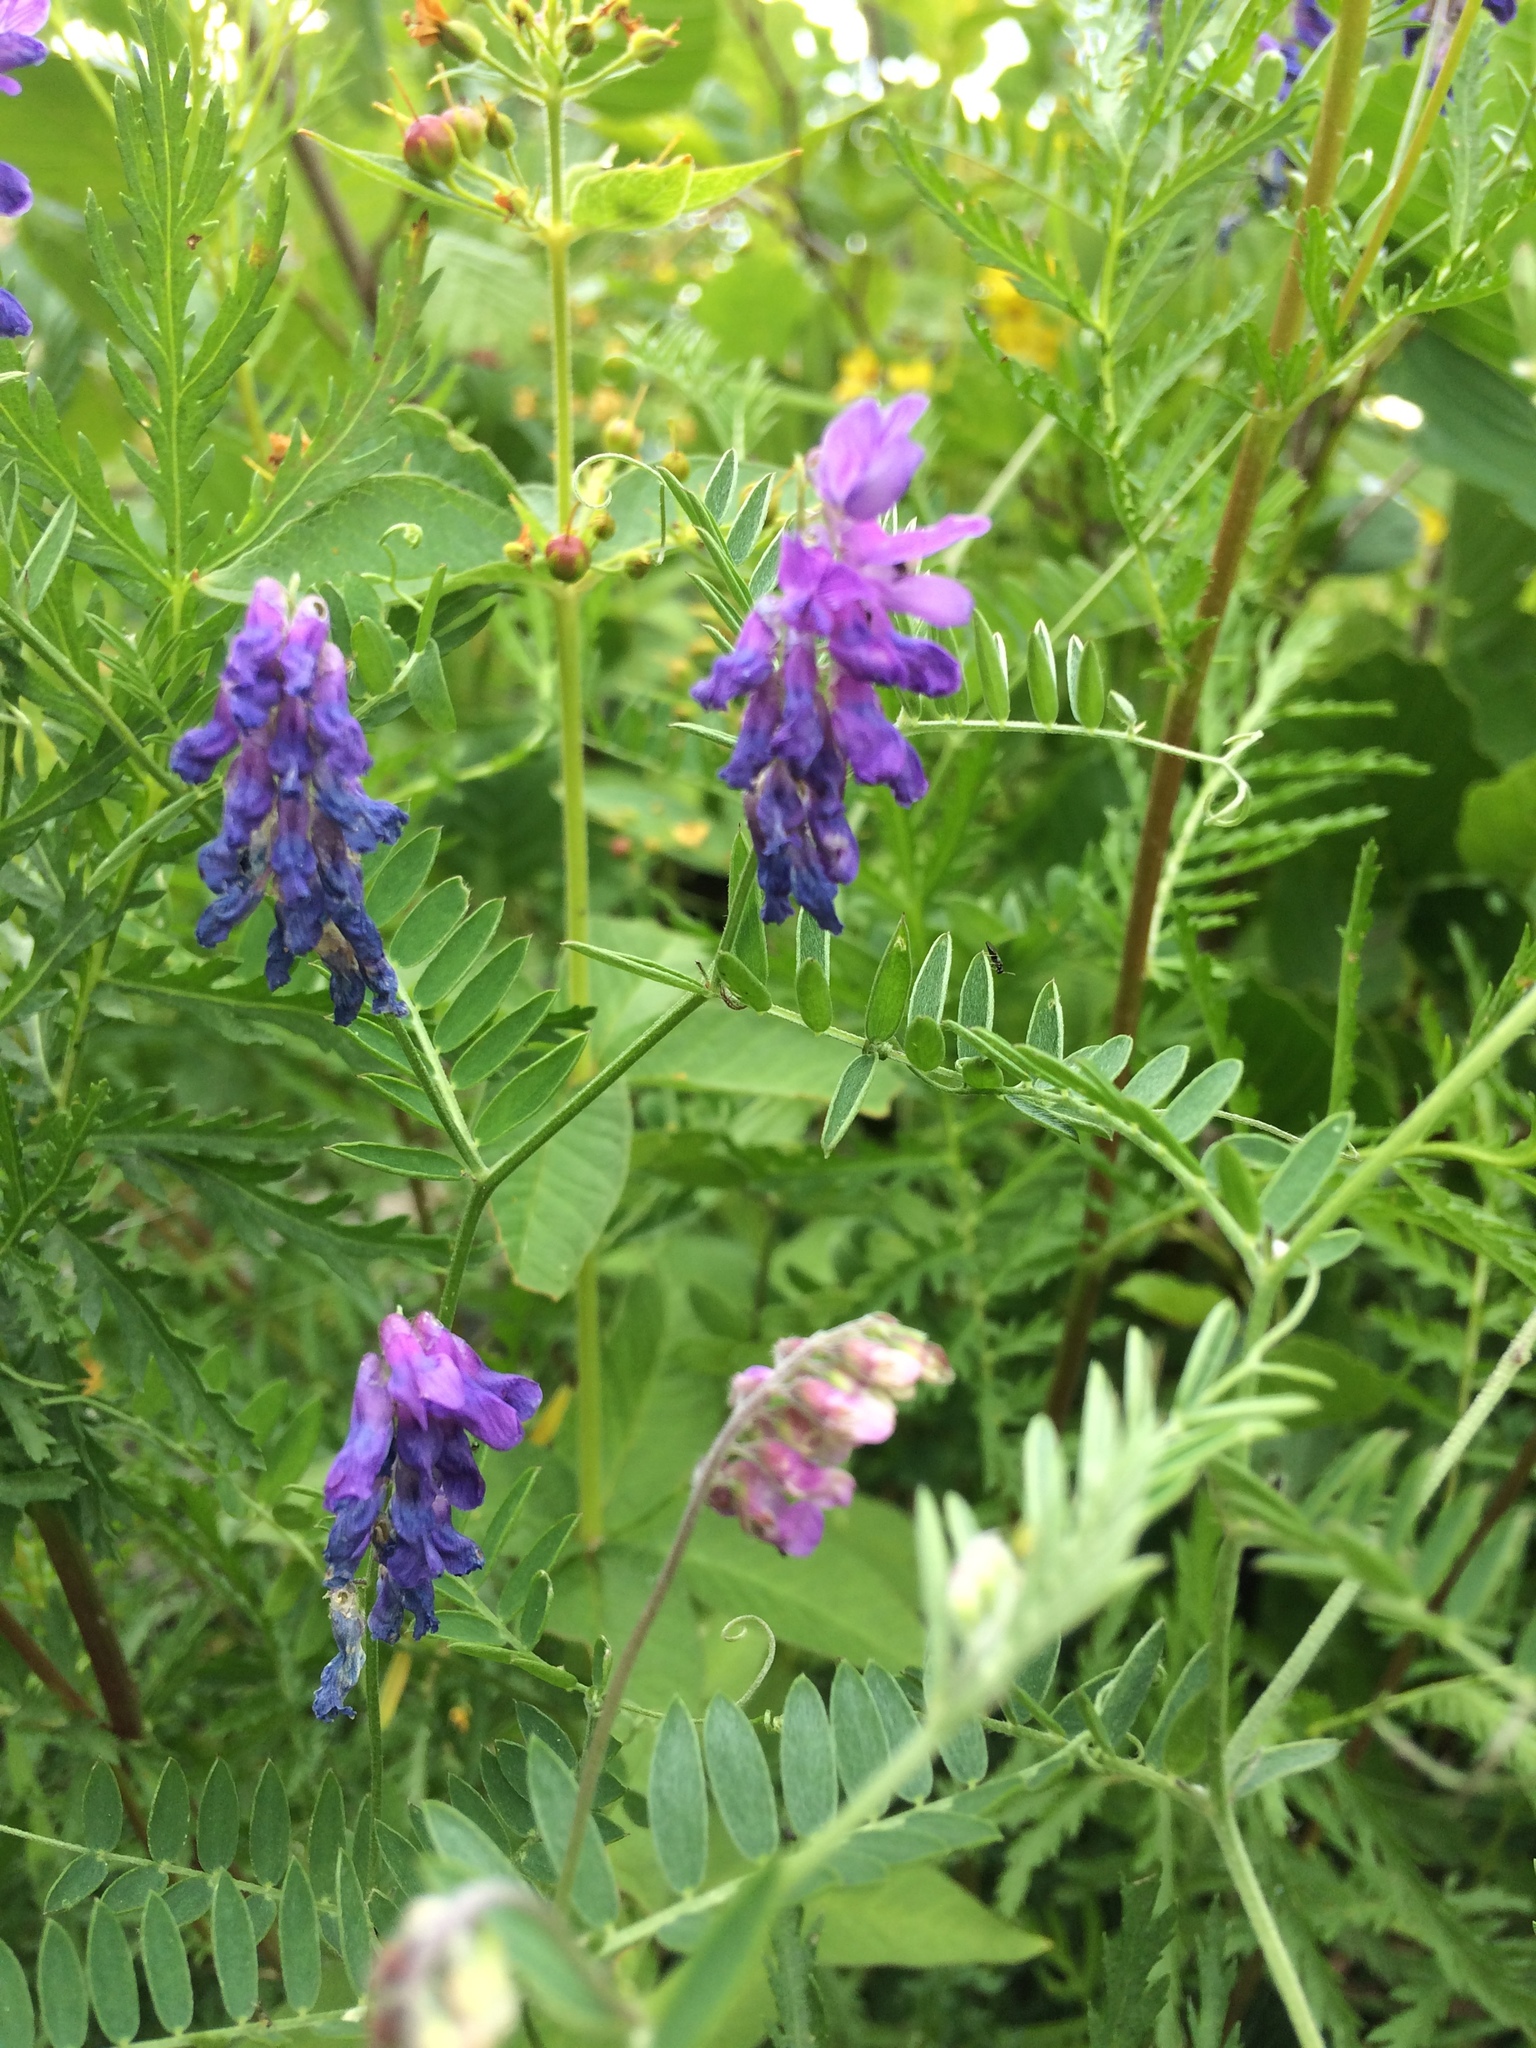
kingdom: Plantae
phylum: Tracheophyta
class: Magnoliopsida
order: Fabales
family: Fabaceae
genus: Vicia
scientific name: Vicia cracca
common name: Bird vetch
